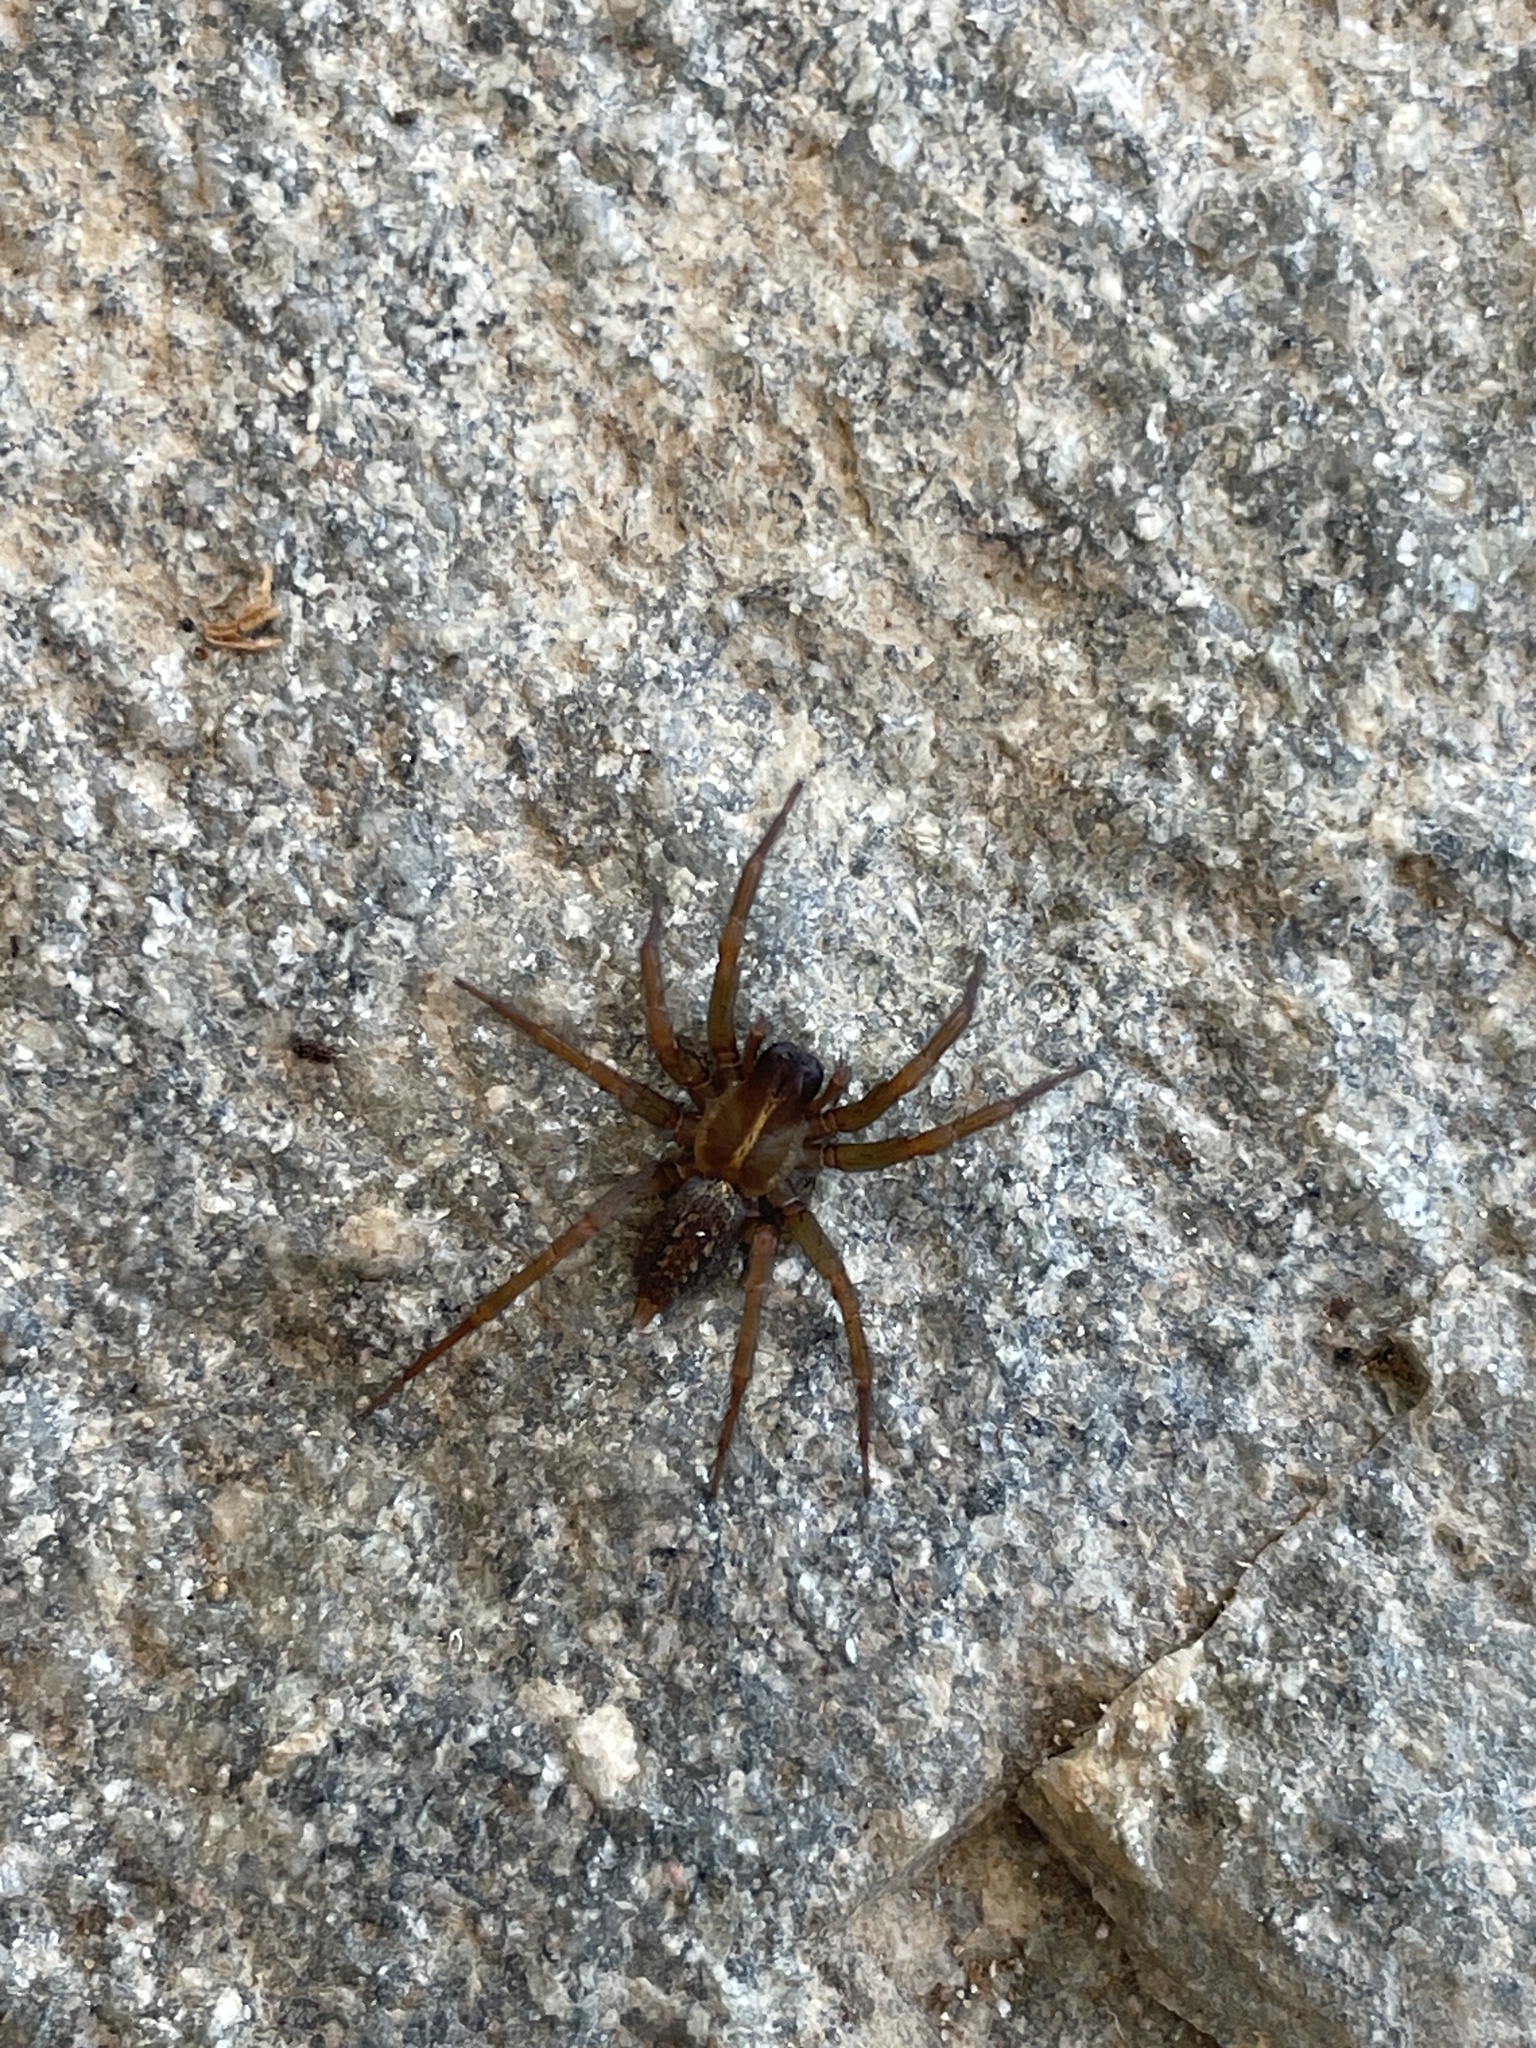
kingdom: Animalia
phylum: Arthropoda
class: Arachnida
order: Araneae
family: Agelenidae
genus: Lycosoides
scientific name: Lycosoides coarctata
